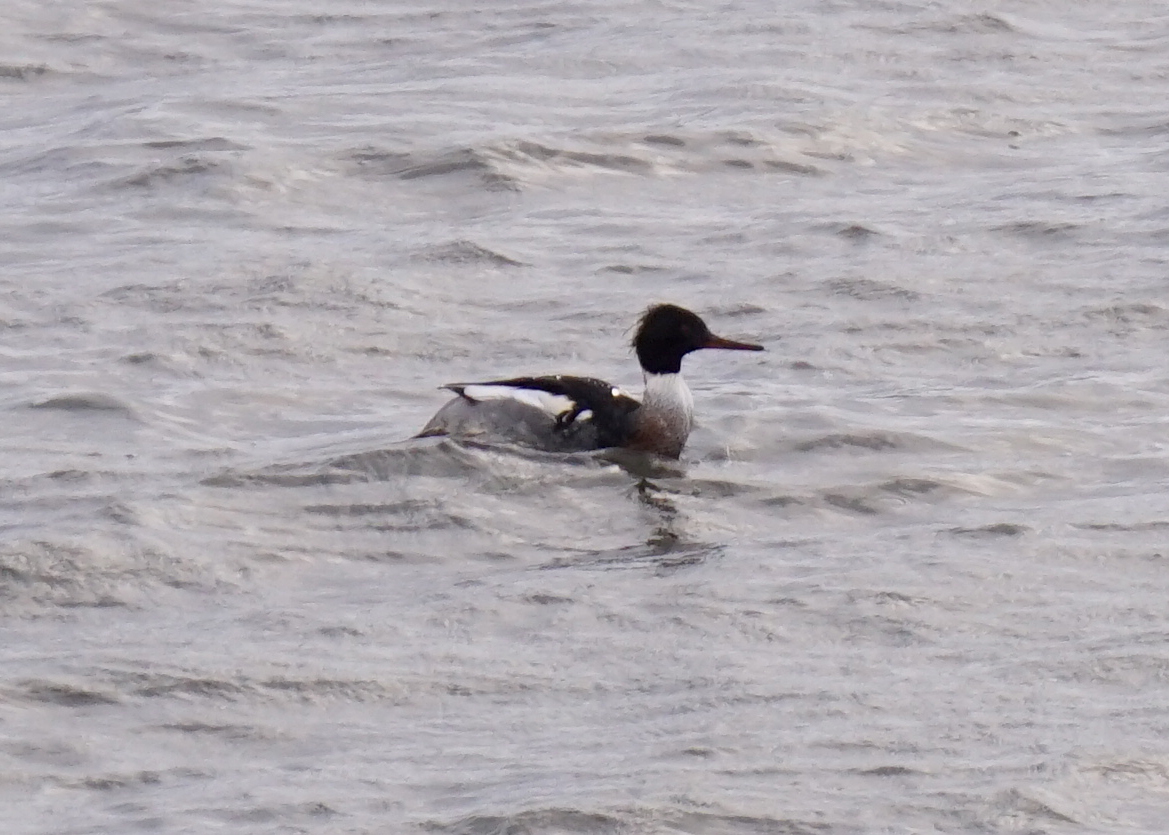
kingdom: Animalia
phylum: Chordata
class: Aves
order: Anseriformes
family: Anatidae
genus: Mergus
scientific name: Mergus serrator
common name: Red-breasted merganser
